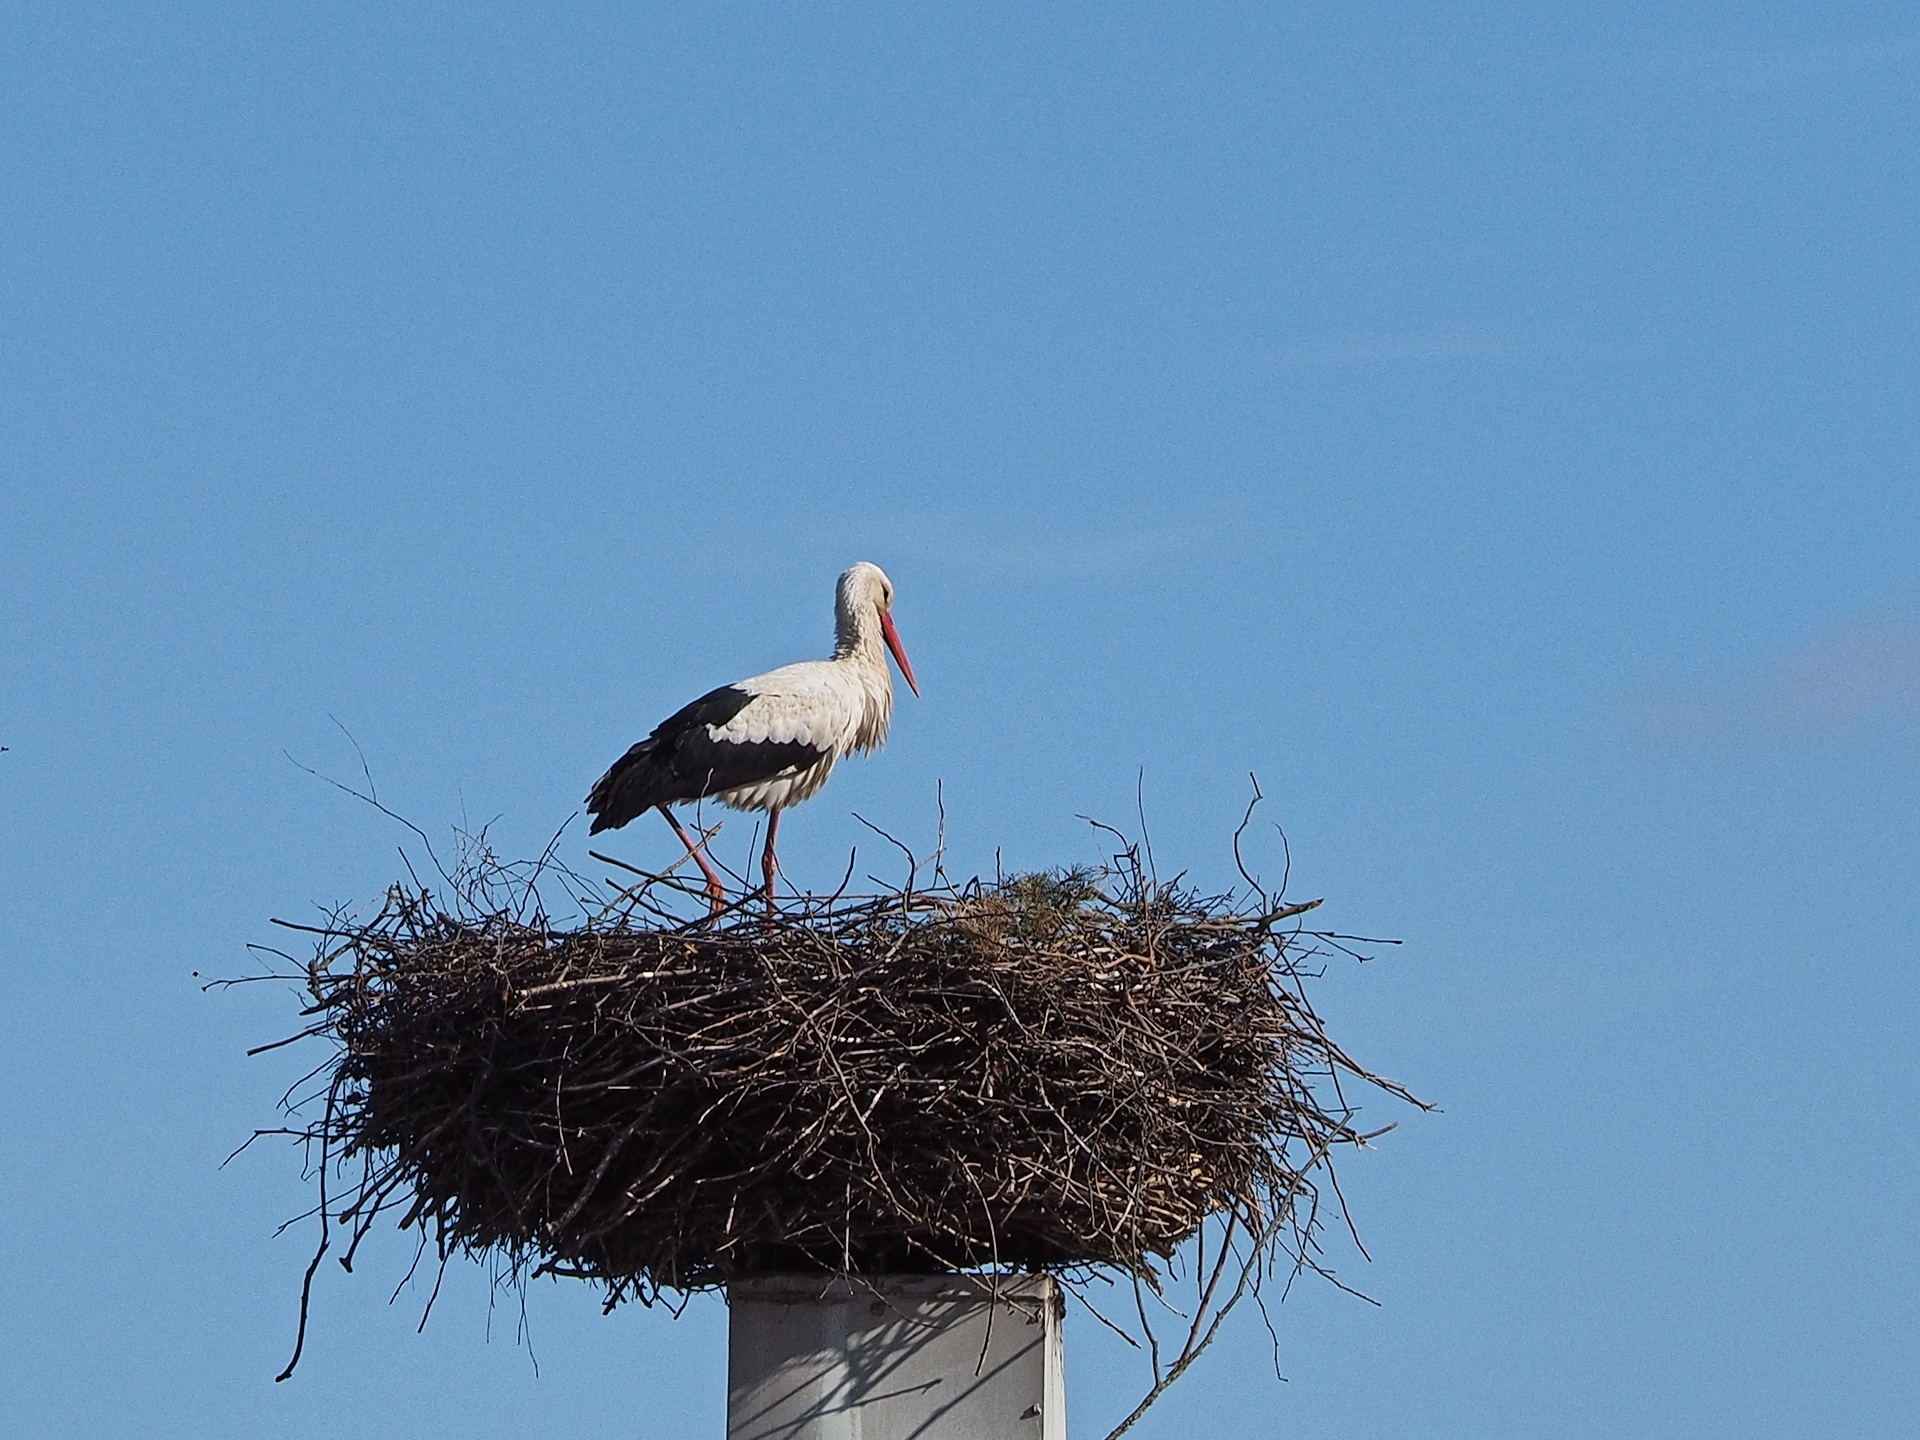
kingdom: Animalia
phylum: Chordata
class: Aves
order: Ciconiiformes
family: Ciconiidae
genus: Ciconia
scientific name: Ciconia ciconia
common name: White stork
